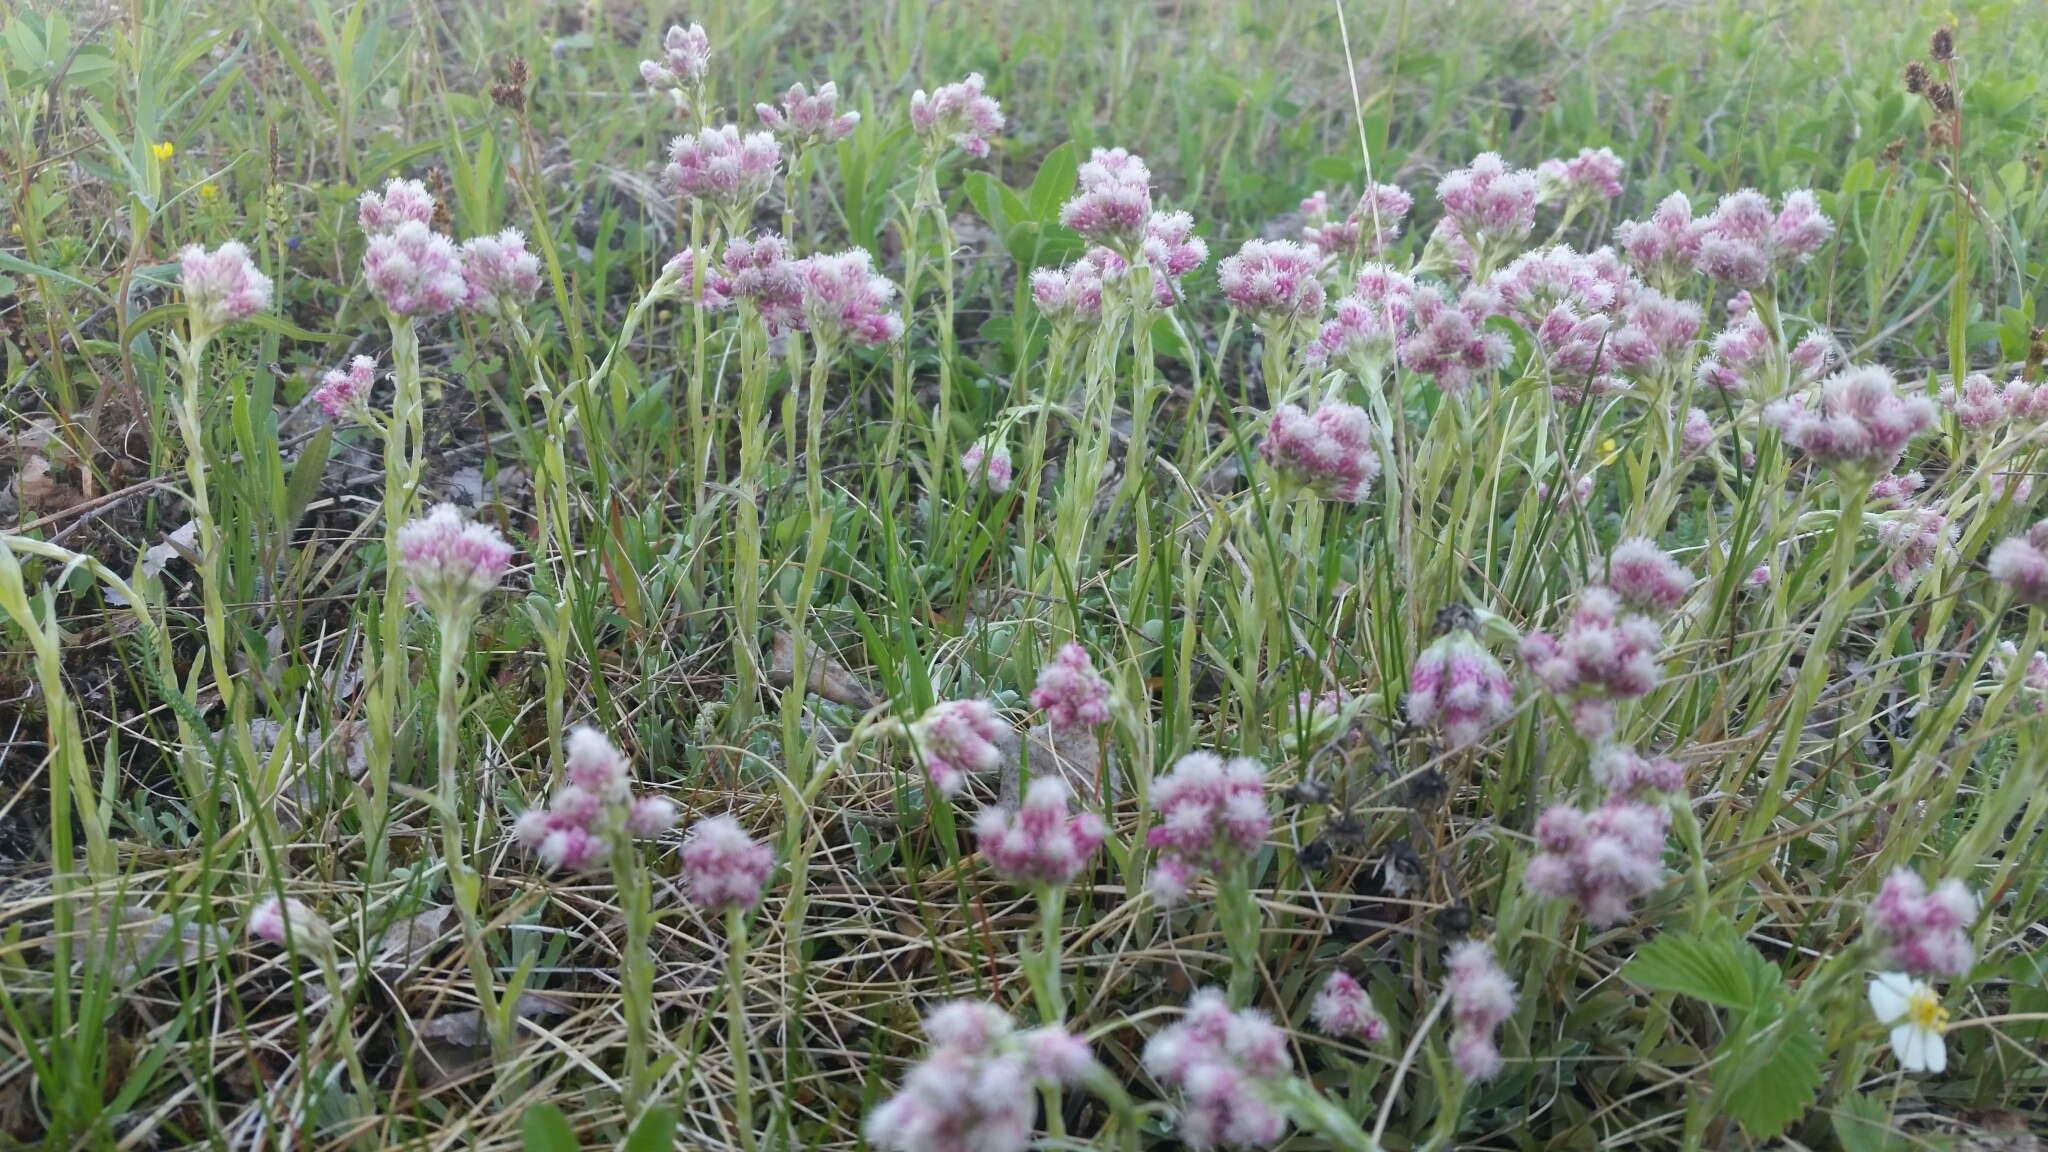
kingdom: Plantae
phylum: Tracheophyta
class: Magnoliopsida
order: Asterales
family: Asteraceae
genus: Antennaria
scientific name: Antennaria dioica
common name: Mountain everlasting
